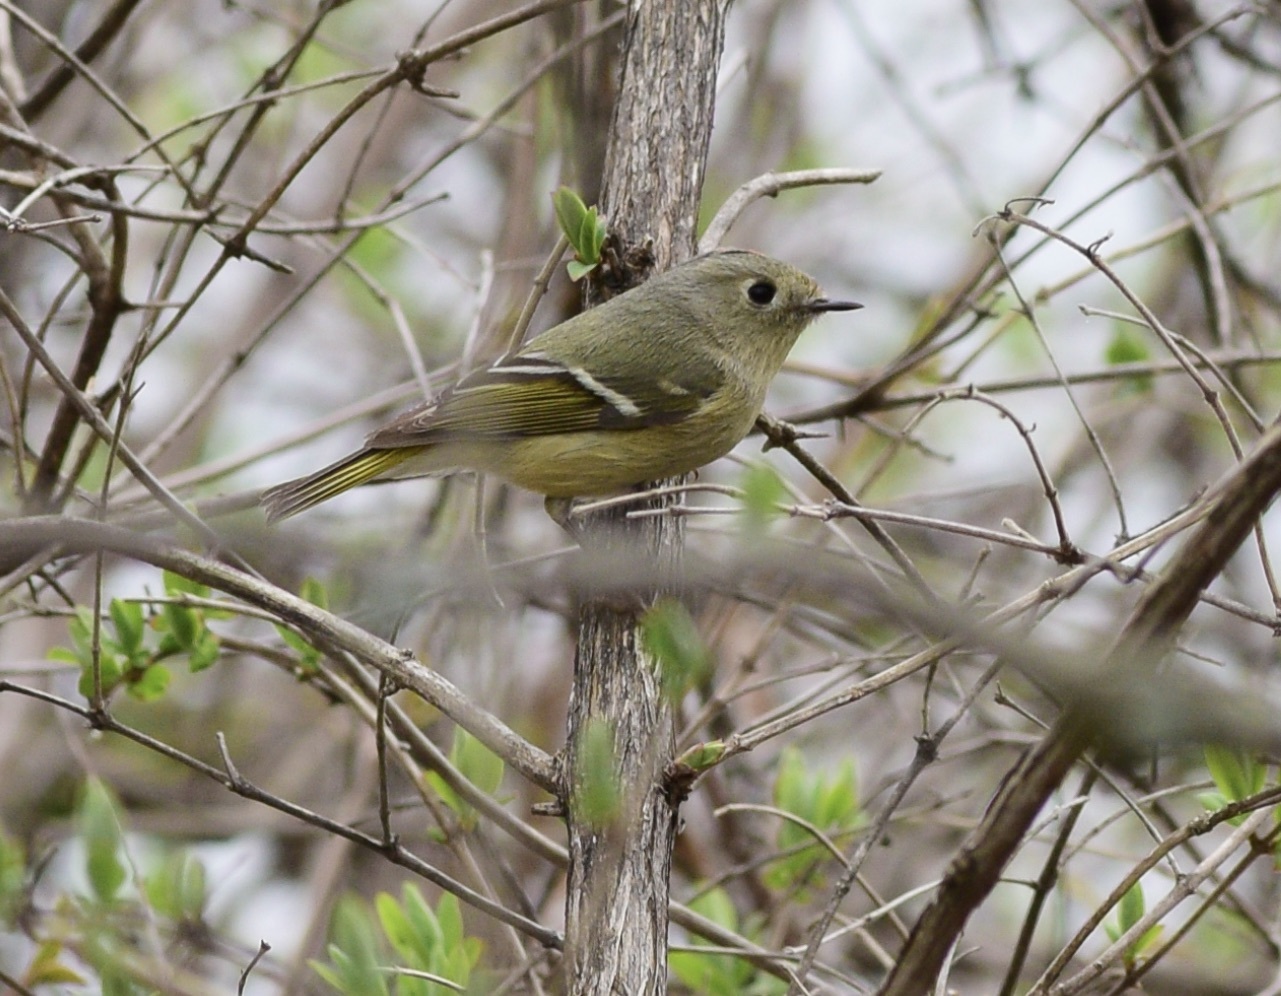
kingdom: Animalia
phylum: Chordata
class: Aves
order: Passeriformes
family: Regulidae
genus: Regulus
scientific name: Regulus calendula
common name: Ruby-crowned kinglet
